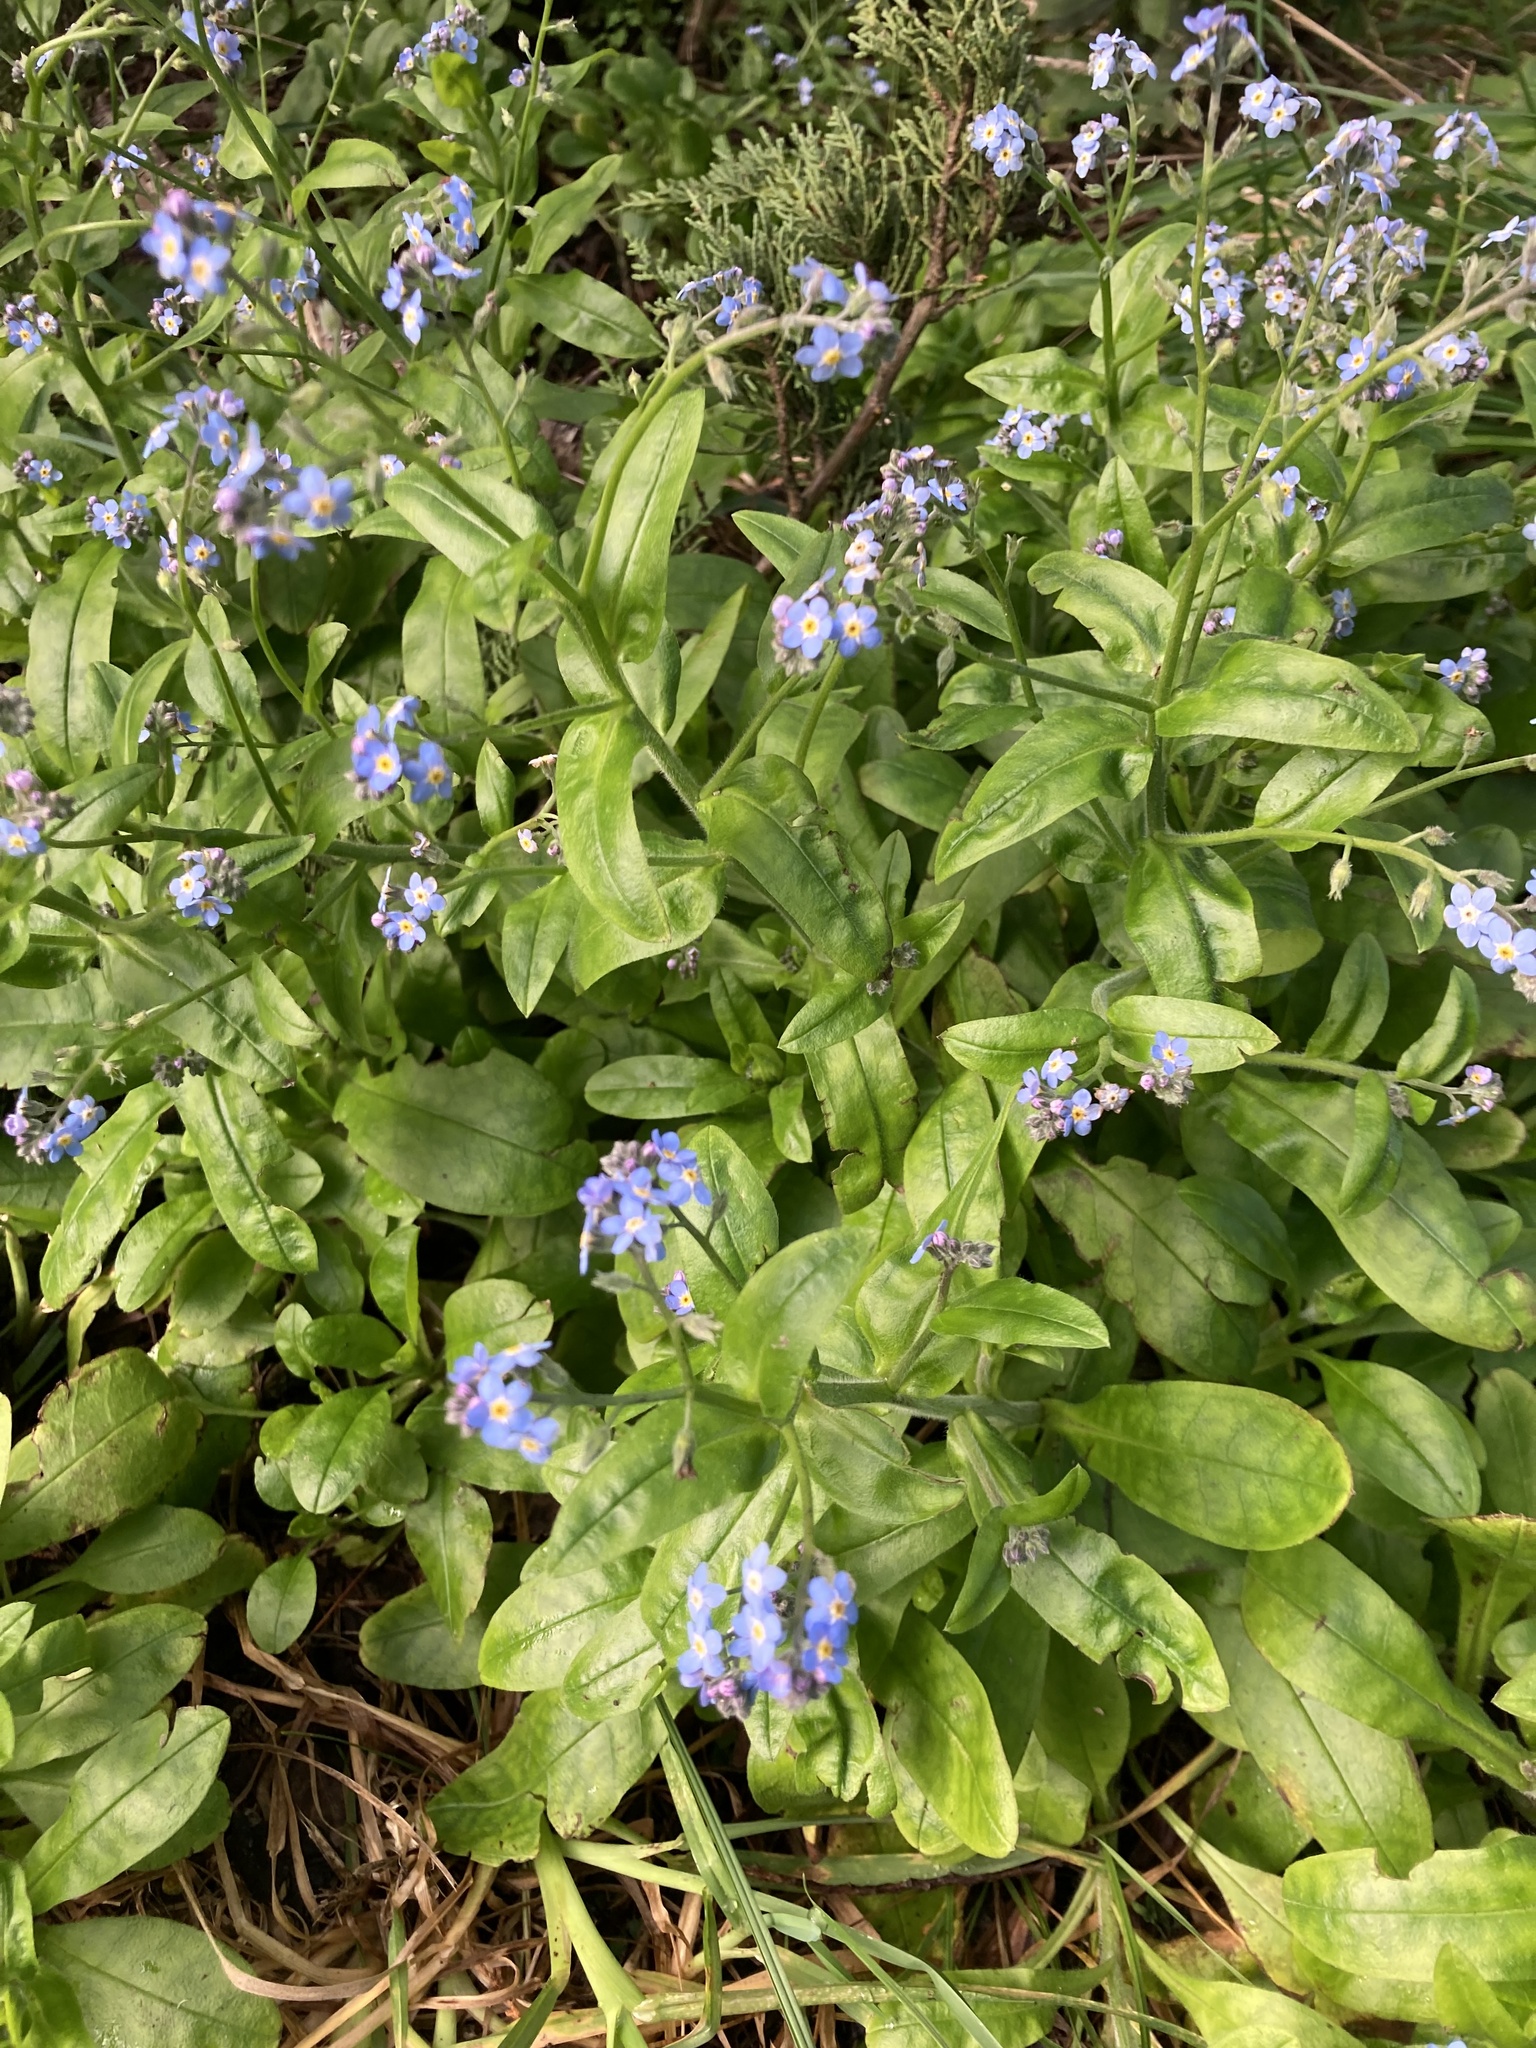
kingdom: Plantae
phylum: Tracheophyta
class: Magnoliopsida
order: Boraginales
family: Boraginaceae
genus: Myosotis
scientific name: Myosotis sylvatica
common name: Wood forget-me-not
